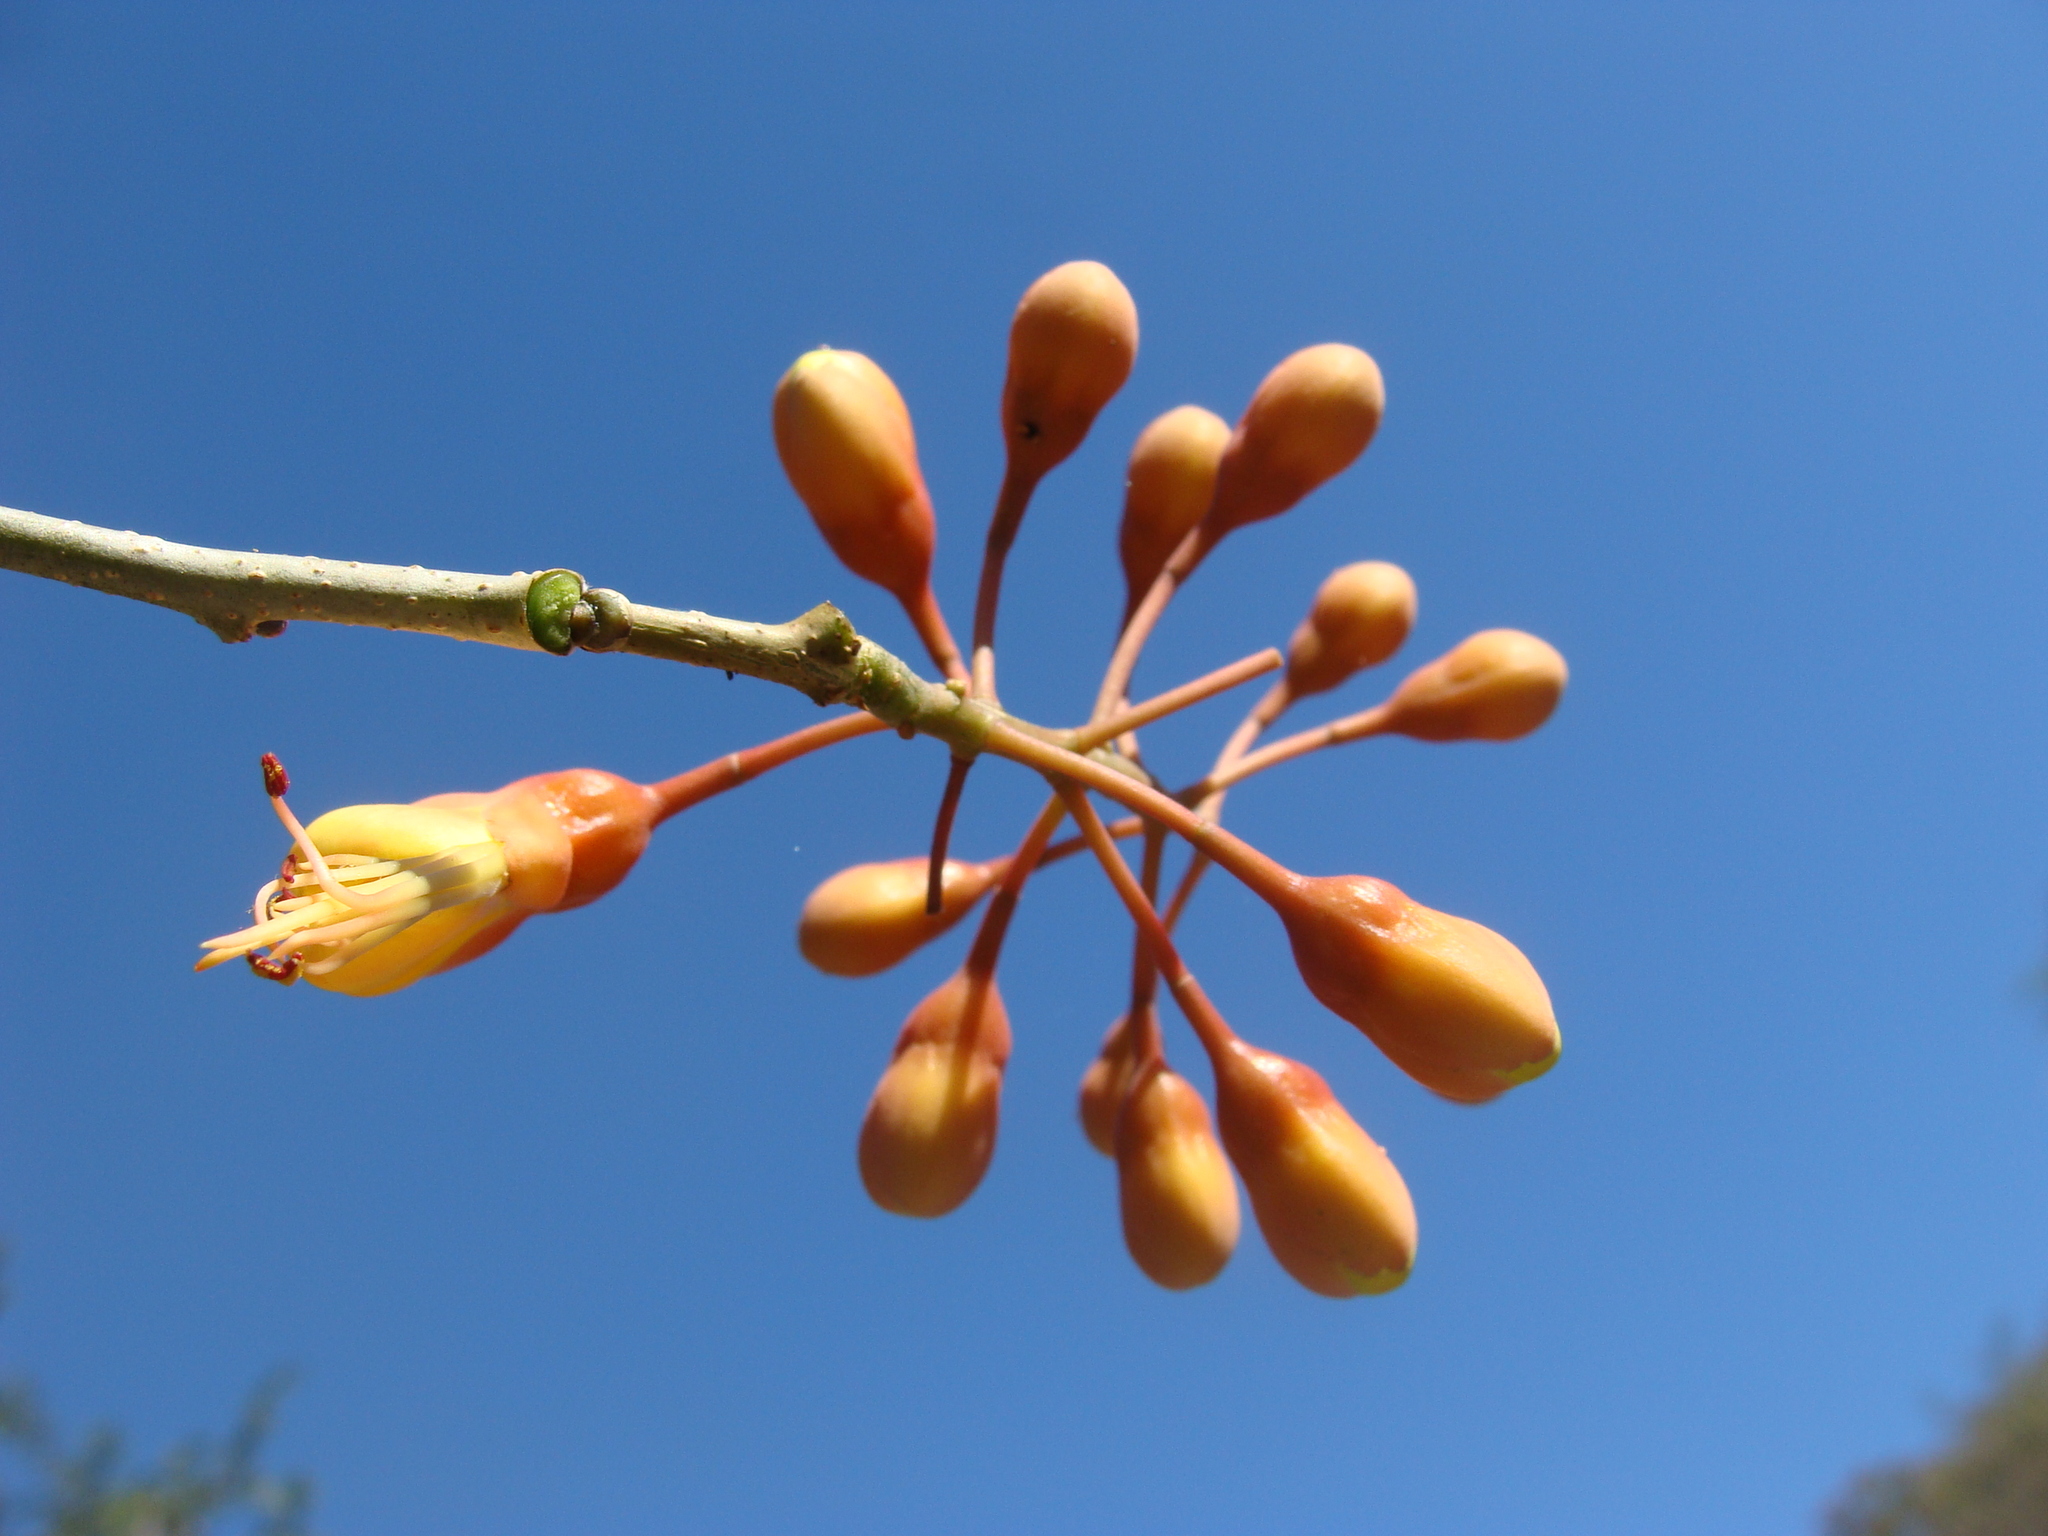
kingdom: Plantae
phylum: Tracheophyta
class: Magnoliopsida
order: Fabales
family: Fabaceae
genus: Erythrostemon
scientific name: Erythrostemon hughesii
